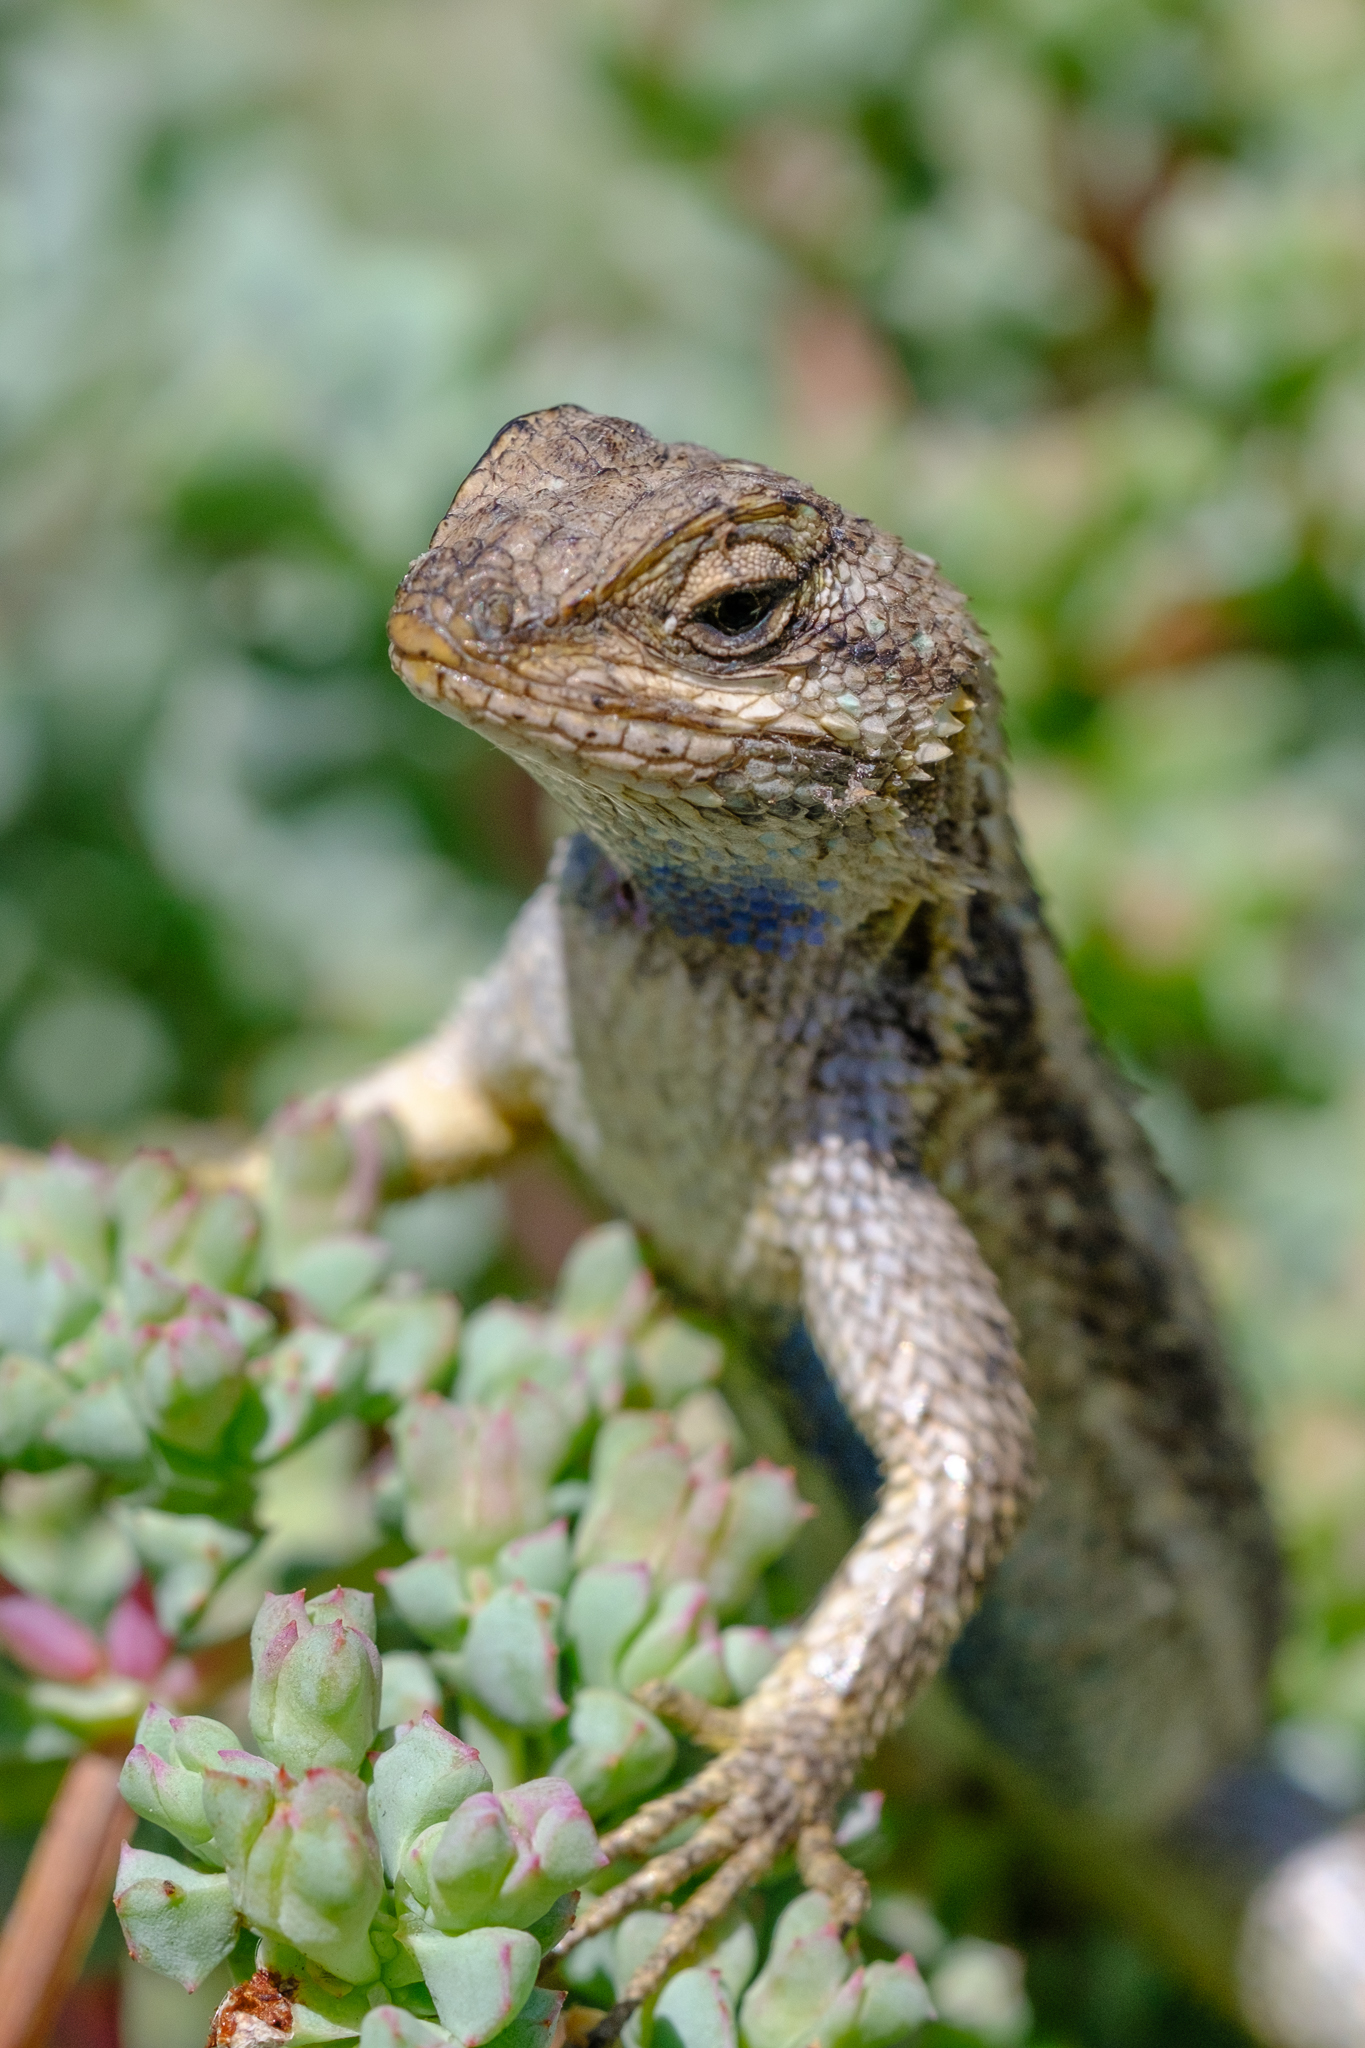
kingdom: Animalia
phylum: Chordata
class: Squamata
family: Phrynosomatidae
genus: Sceloporus
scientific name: Sceloporus occidentalis
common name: Western fence lizard
